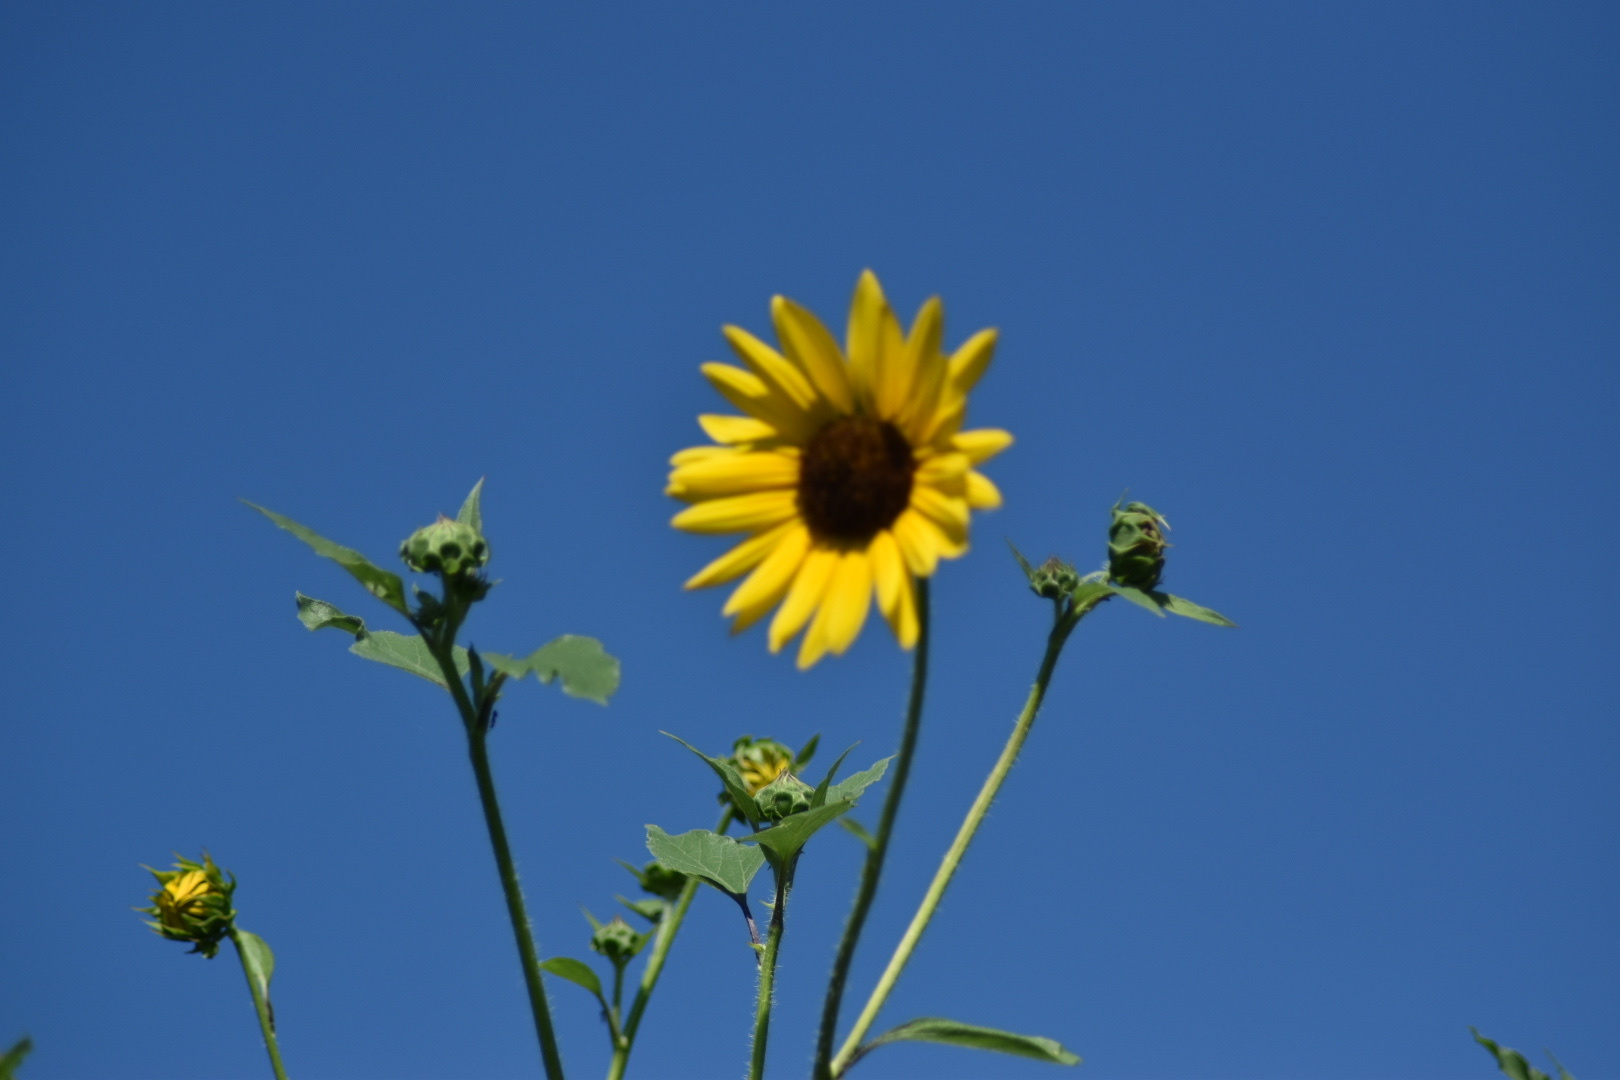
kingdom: Plantae
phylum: Tracheophyta
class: Magnoliopsida
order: Asterales
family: Asteraceae
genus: Helianthus
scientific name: Helianthus annuus
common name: Sunflower
